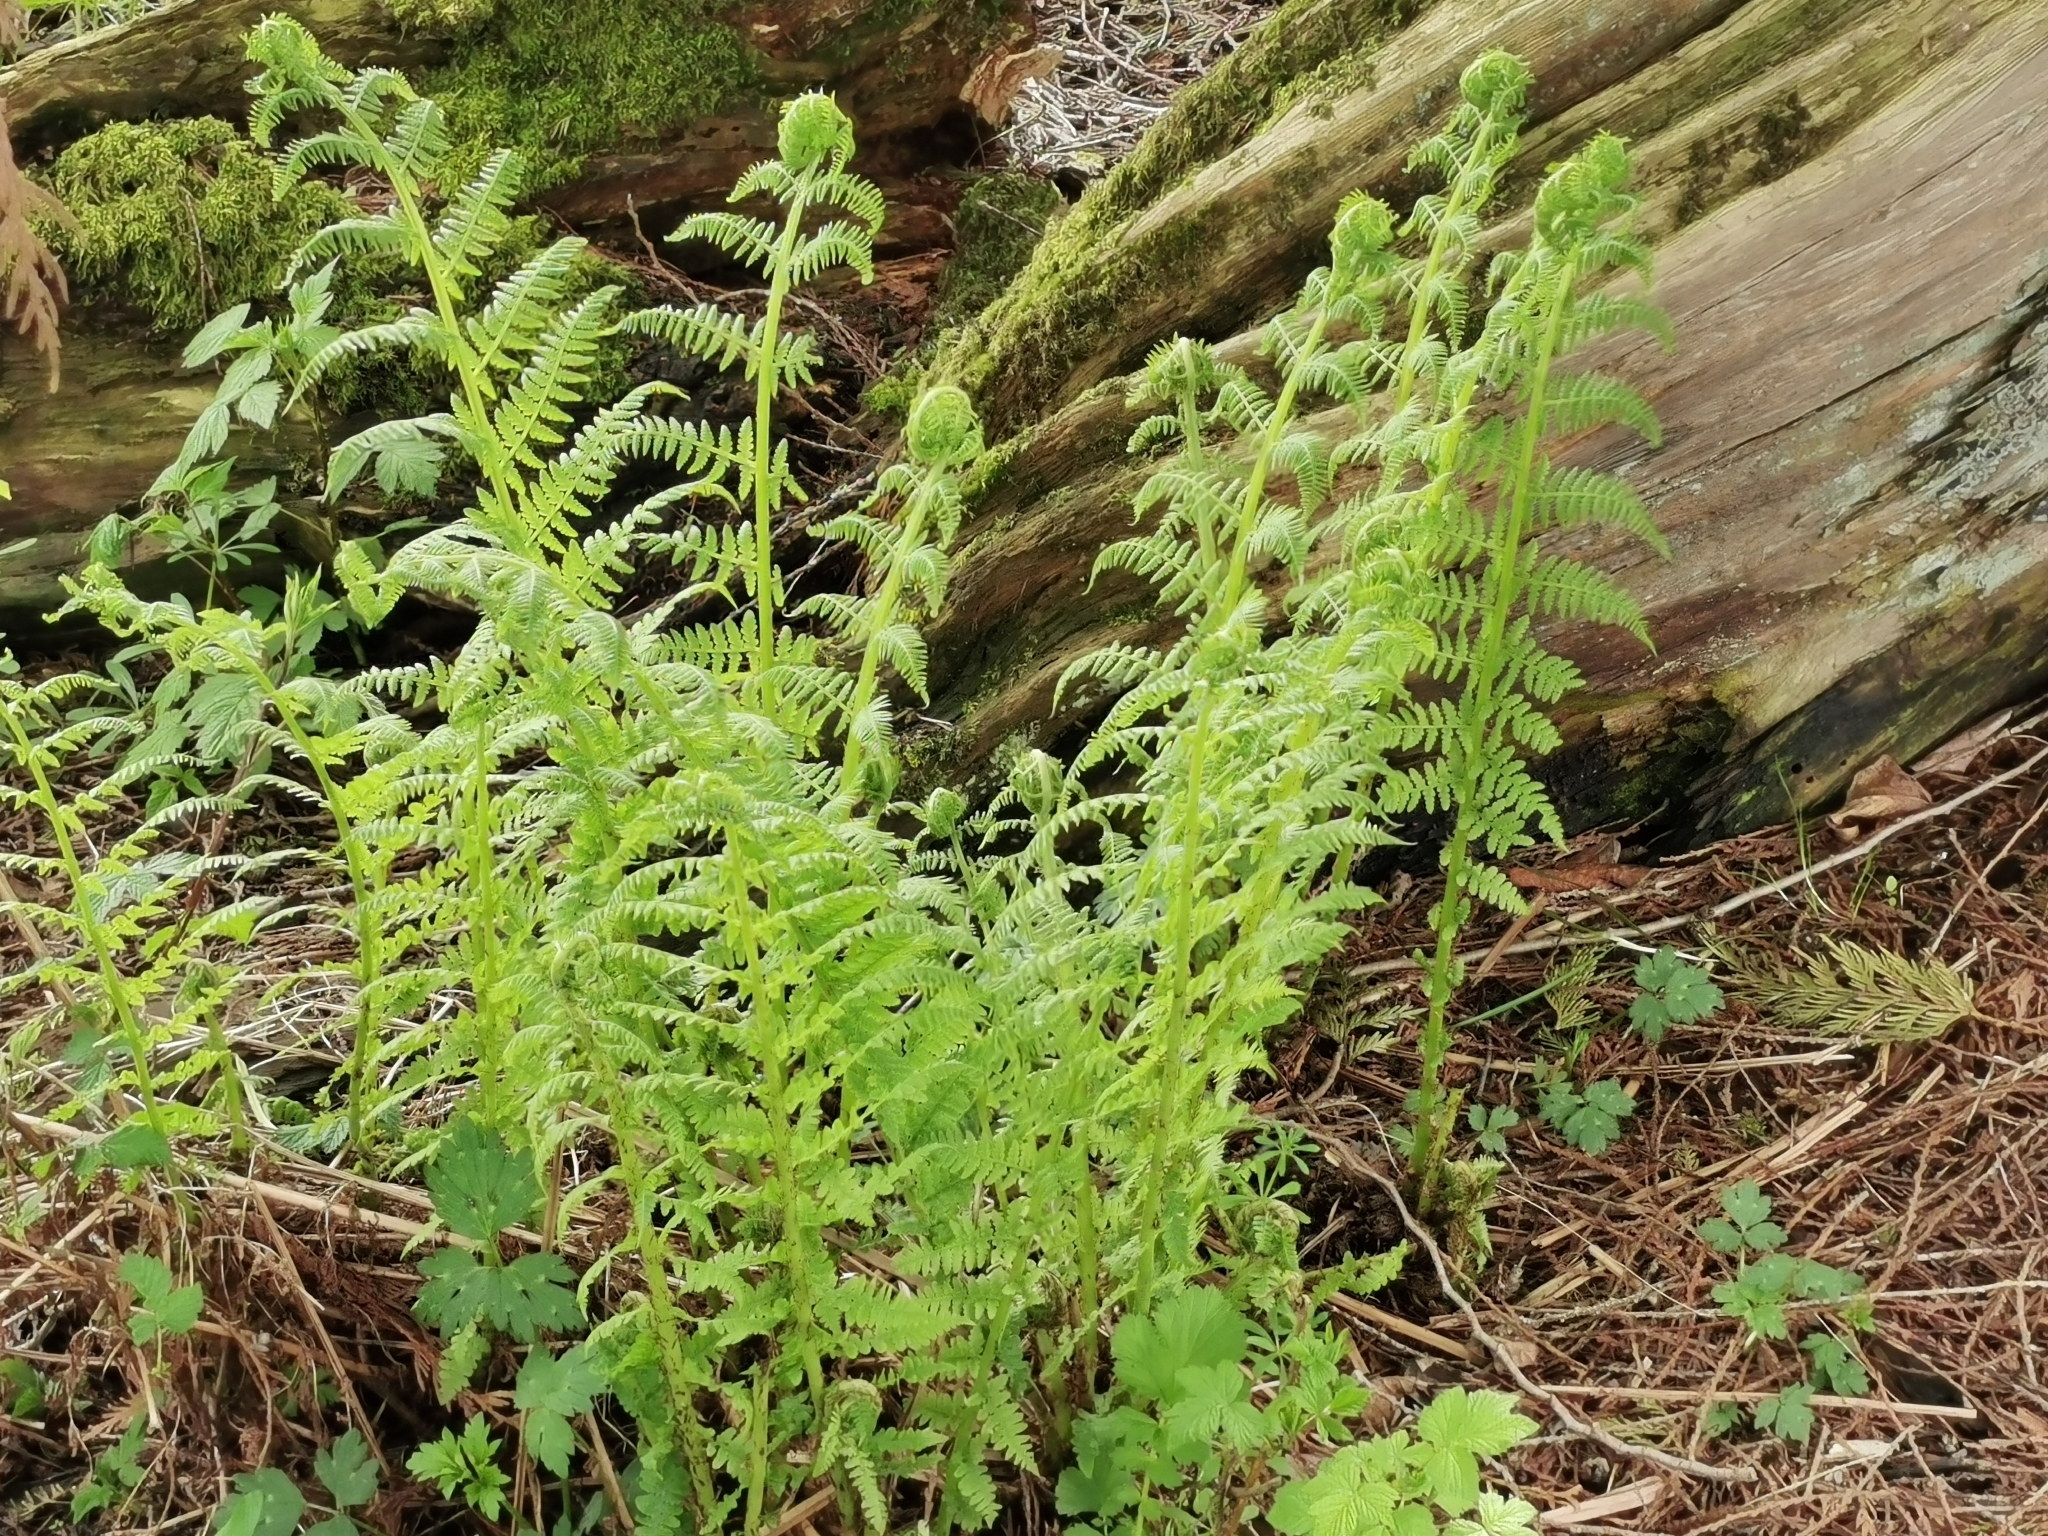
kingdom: Plantae
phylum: Tracheophyta
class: Polypodiopsida
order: Polypodiales
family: Athyriaceae
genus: Athyrium
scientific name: Athyrium cyclosorum
